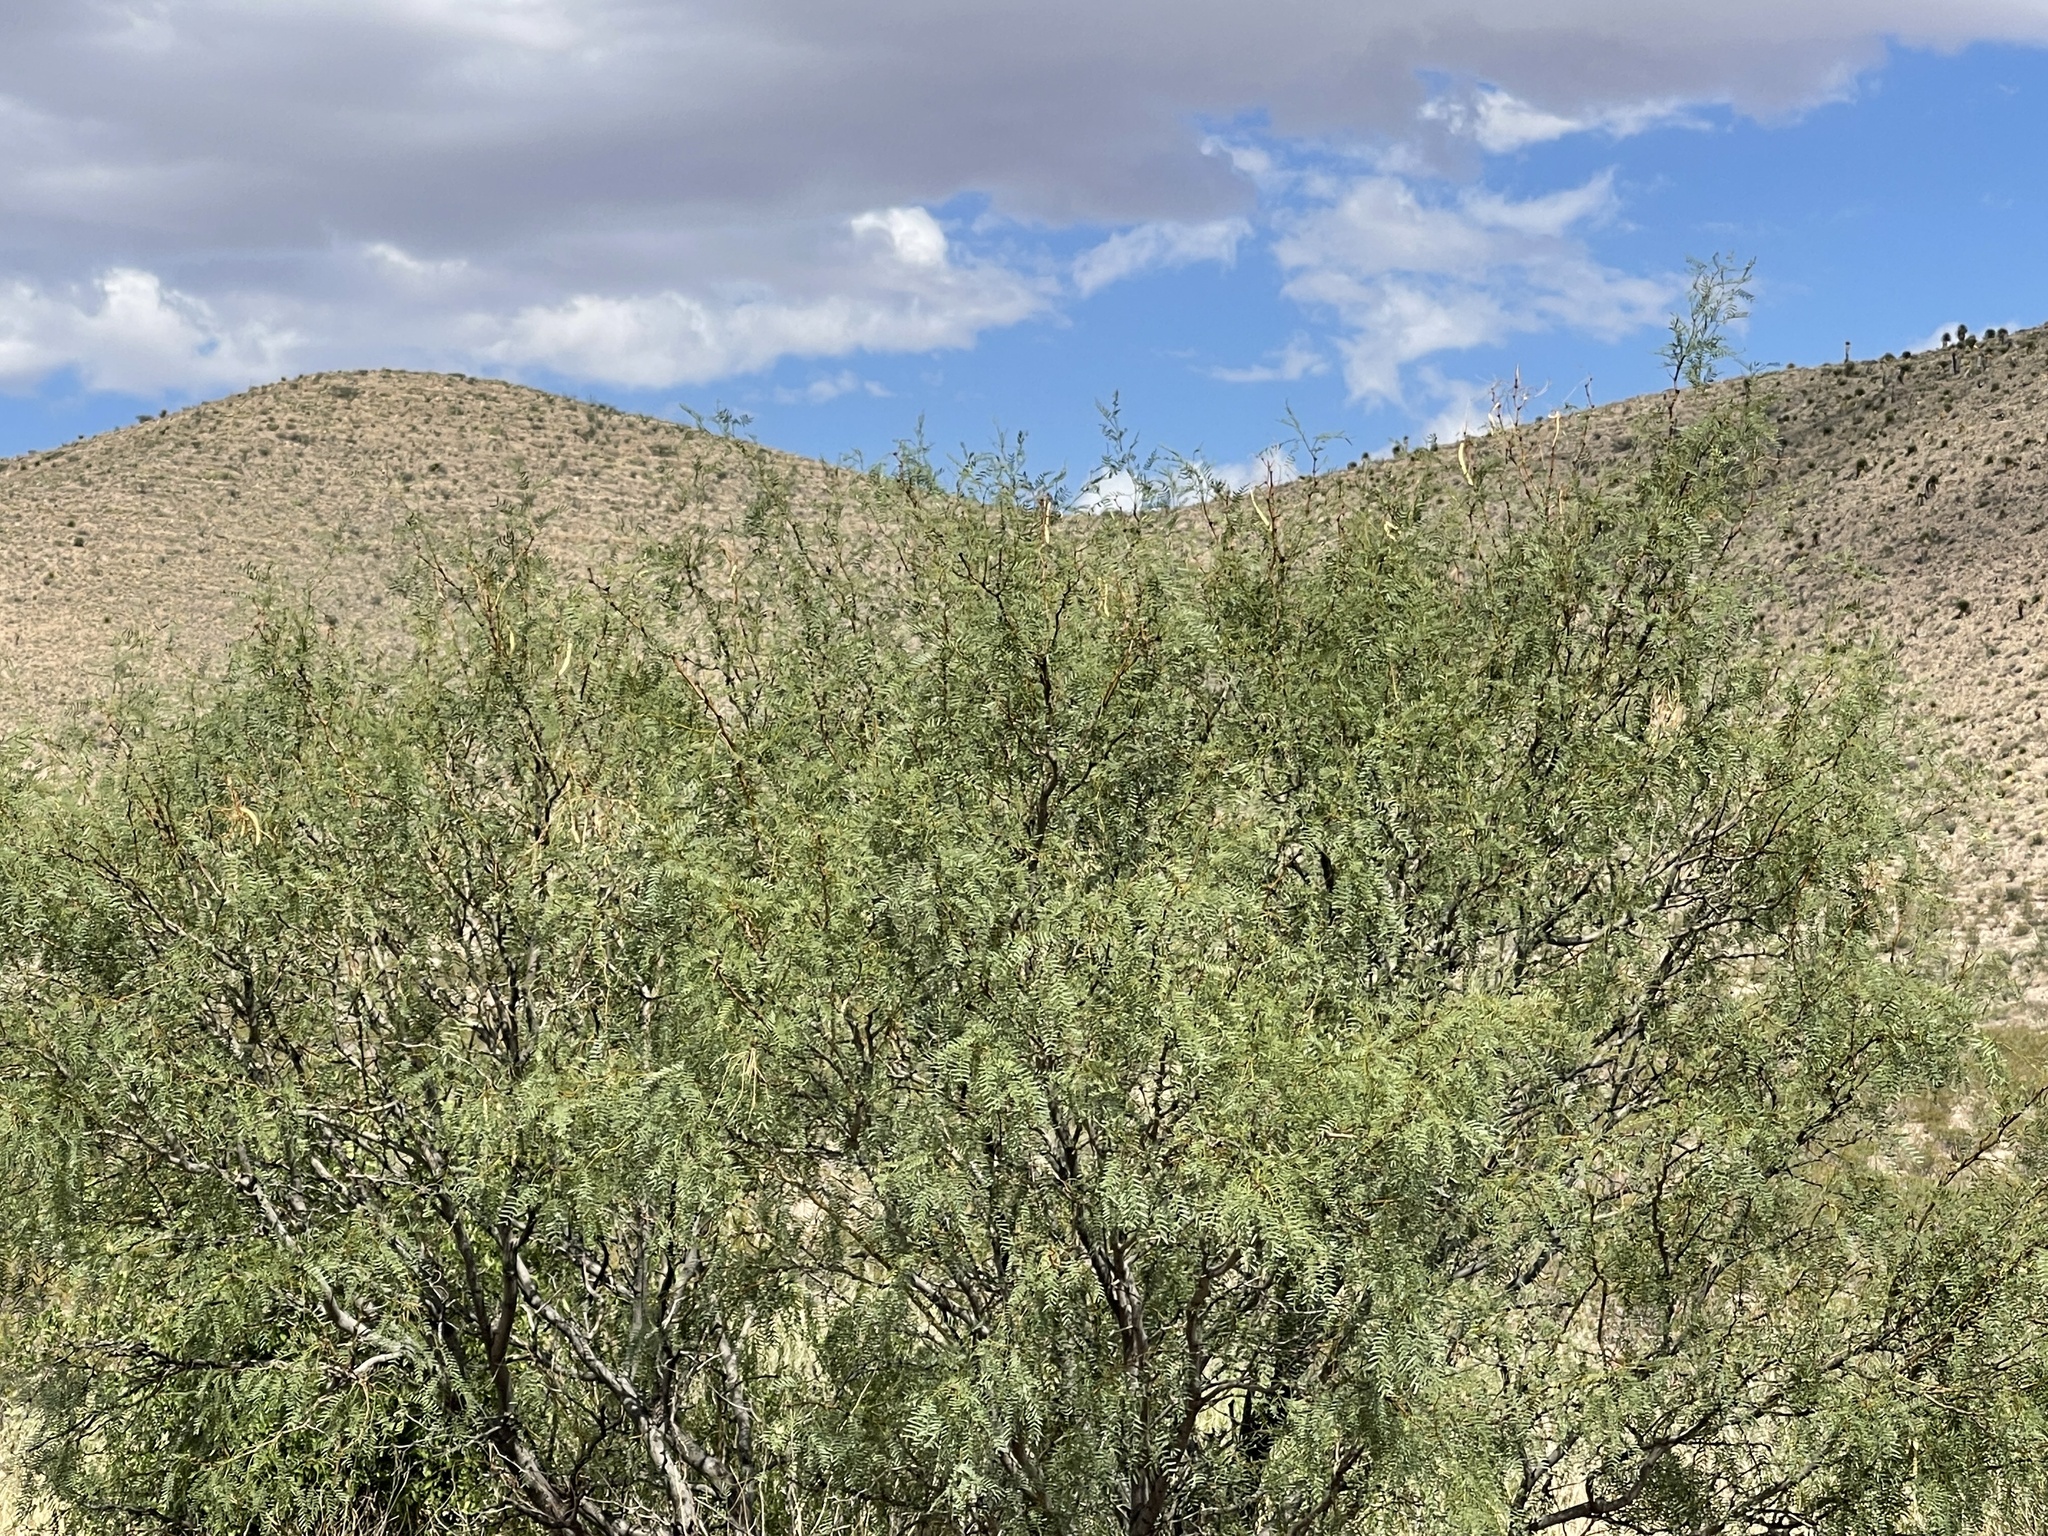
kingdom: Plantae
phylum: Tracheophyta
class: Magnoliopsida
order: Fabales
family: Fabaceae
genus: Prosopis
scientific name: Prosopis glandulosa
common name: Honey mesquite
